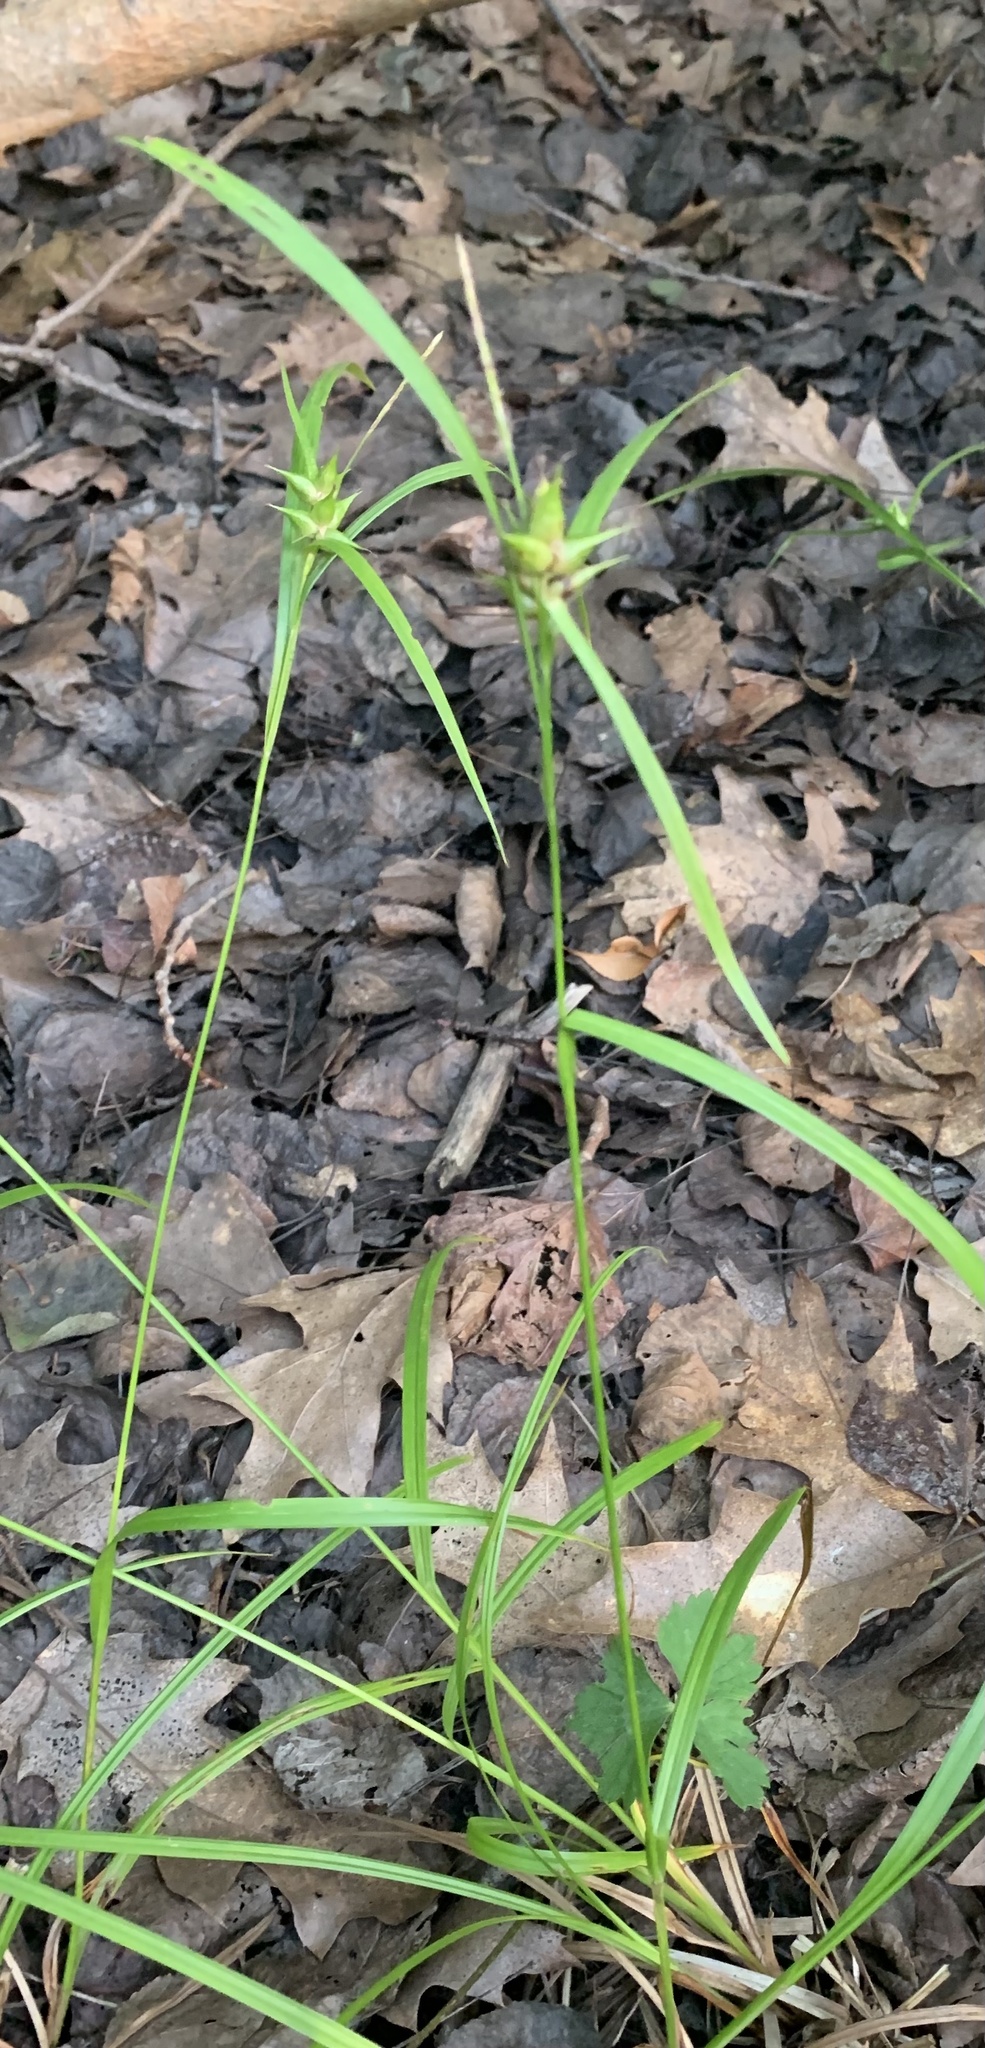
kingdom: Plantae
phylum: Tracheophyta
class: Liliopsida
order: Poales
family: Cyperaceae
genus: Carex
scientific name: Carex intumescens
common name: Greater bladder sedge
